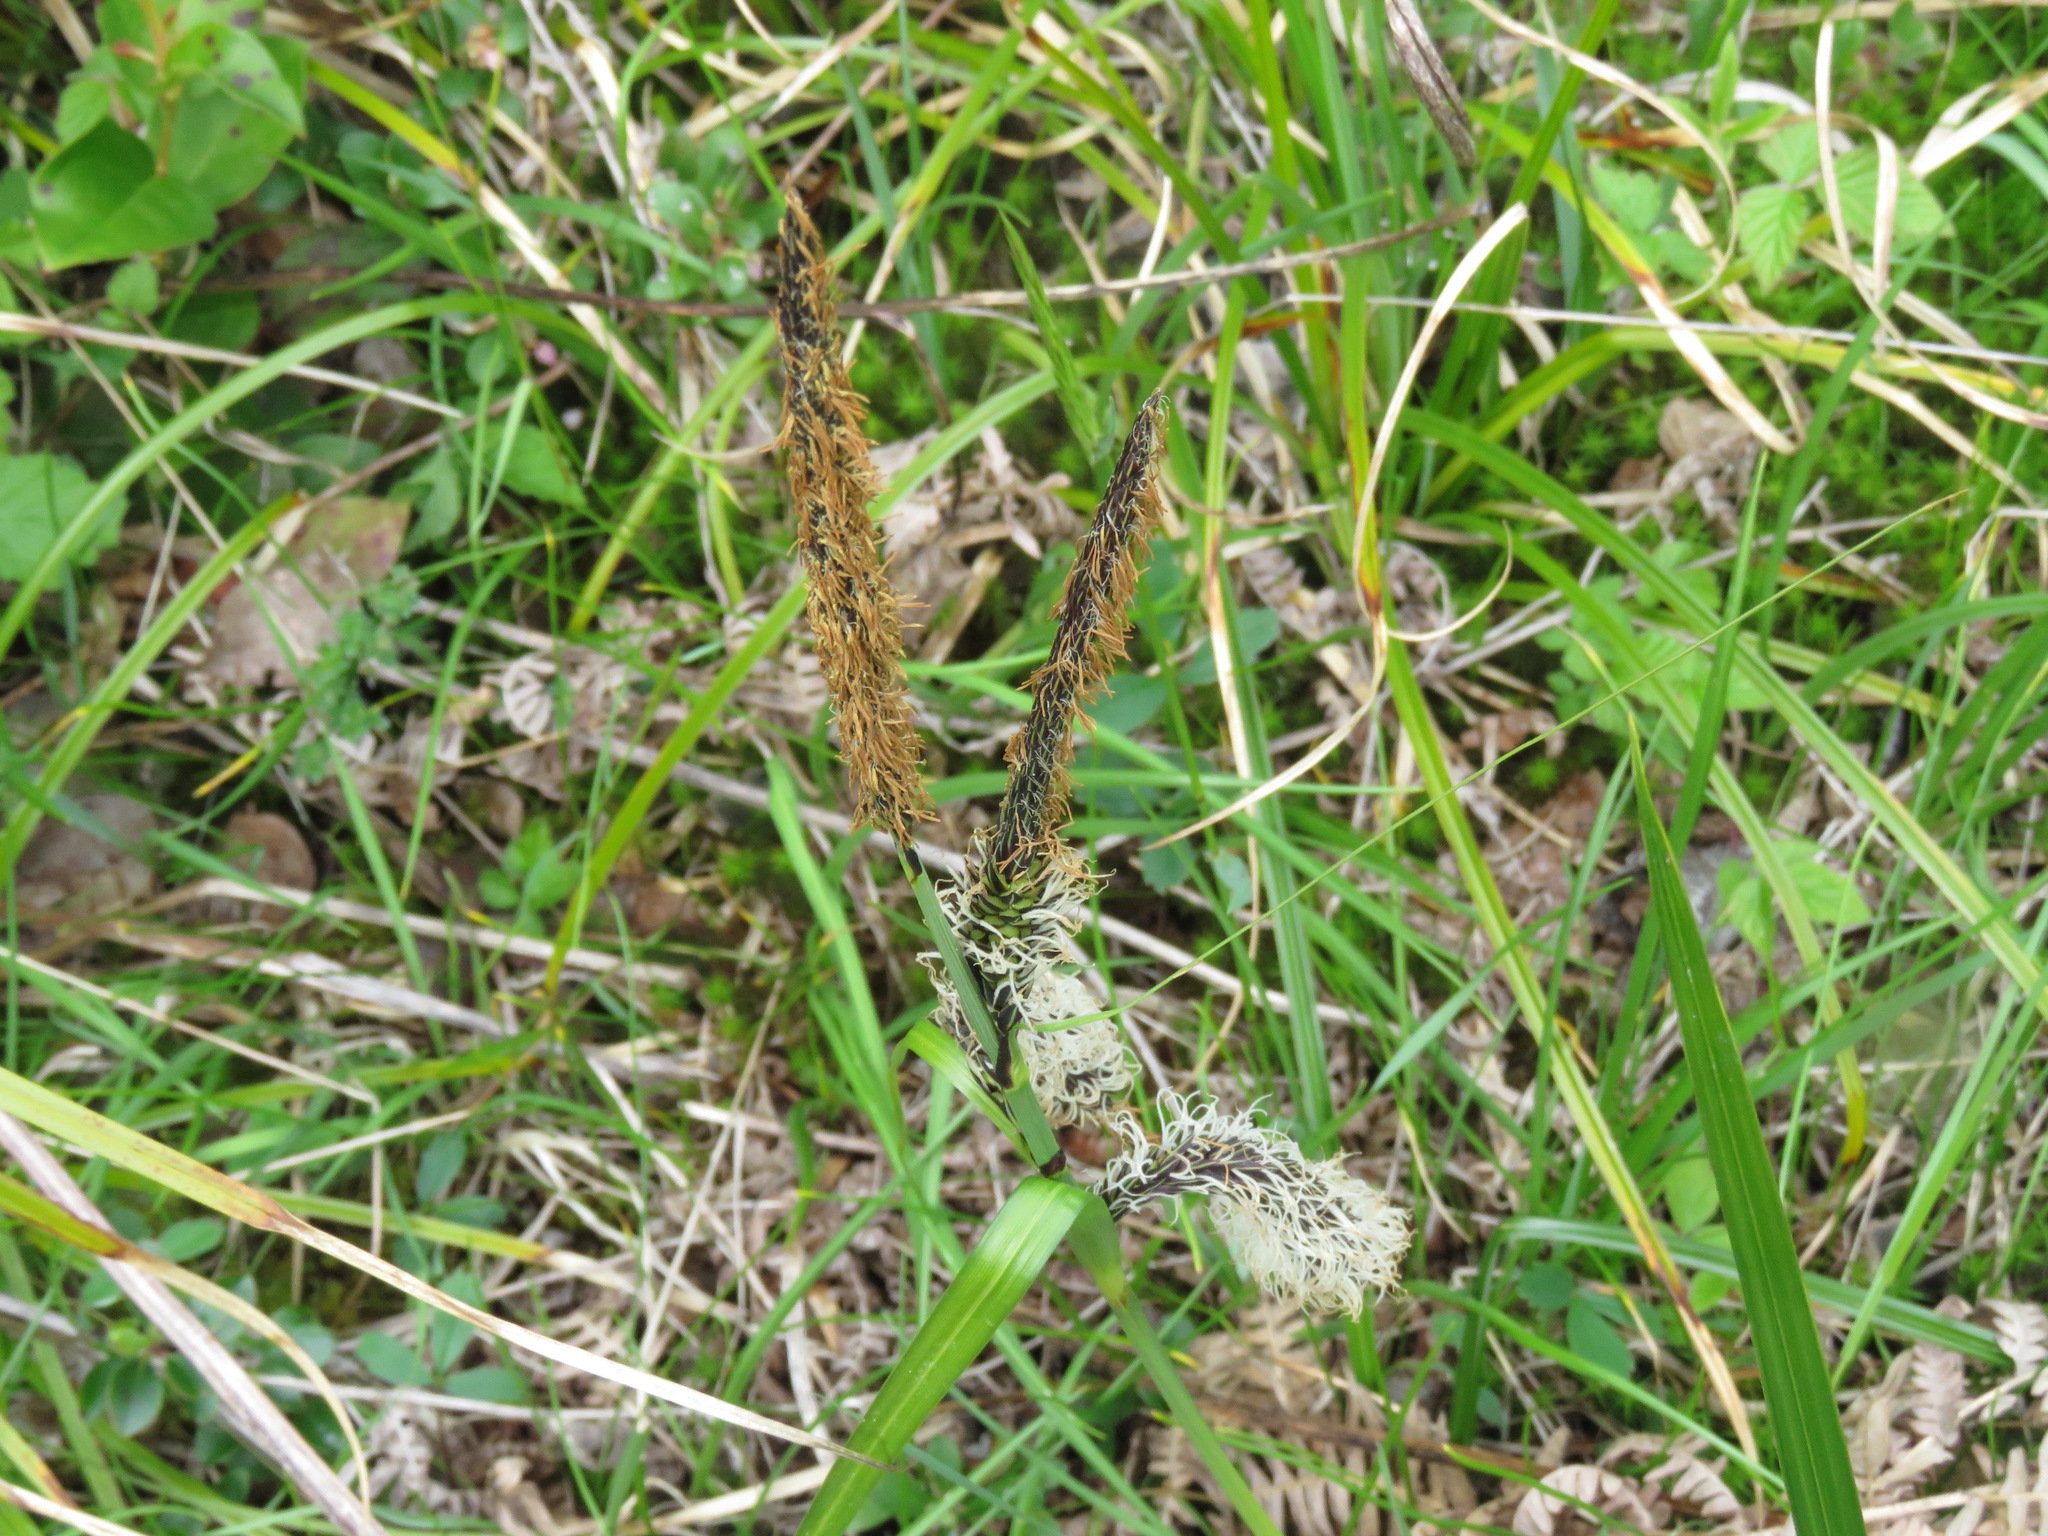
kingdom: Plantae
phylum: Tracheophyta
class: Liliopsida
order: Poales
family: Cyperaceae
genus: Carex
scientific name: Carex obnupta
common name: Slough sedge
